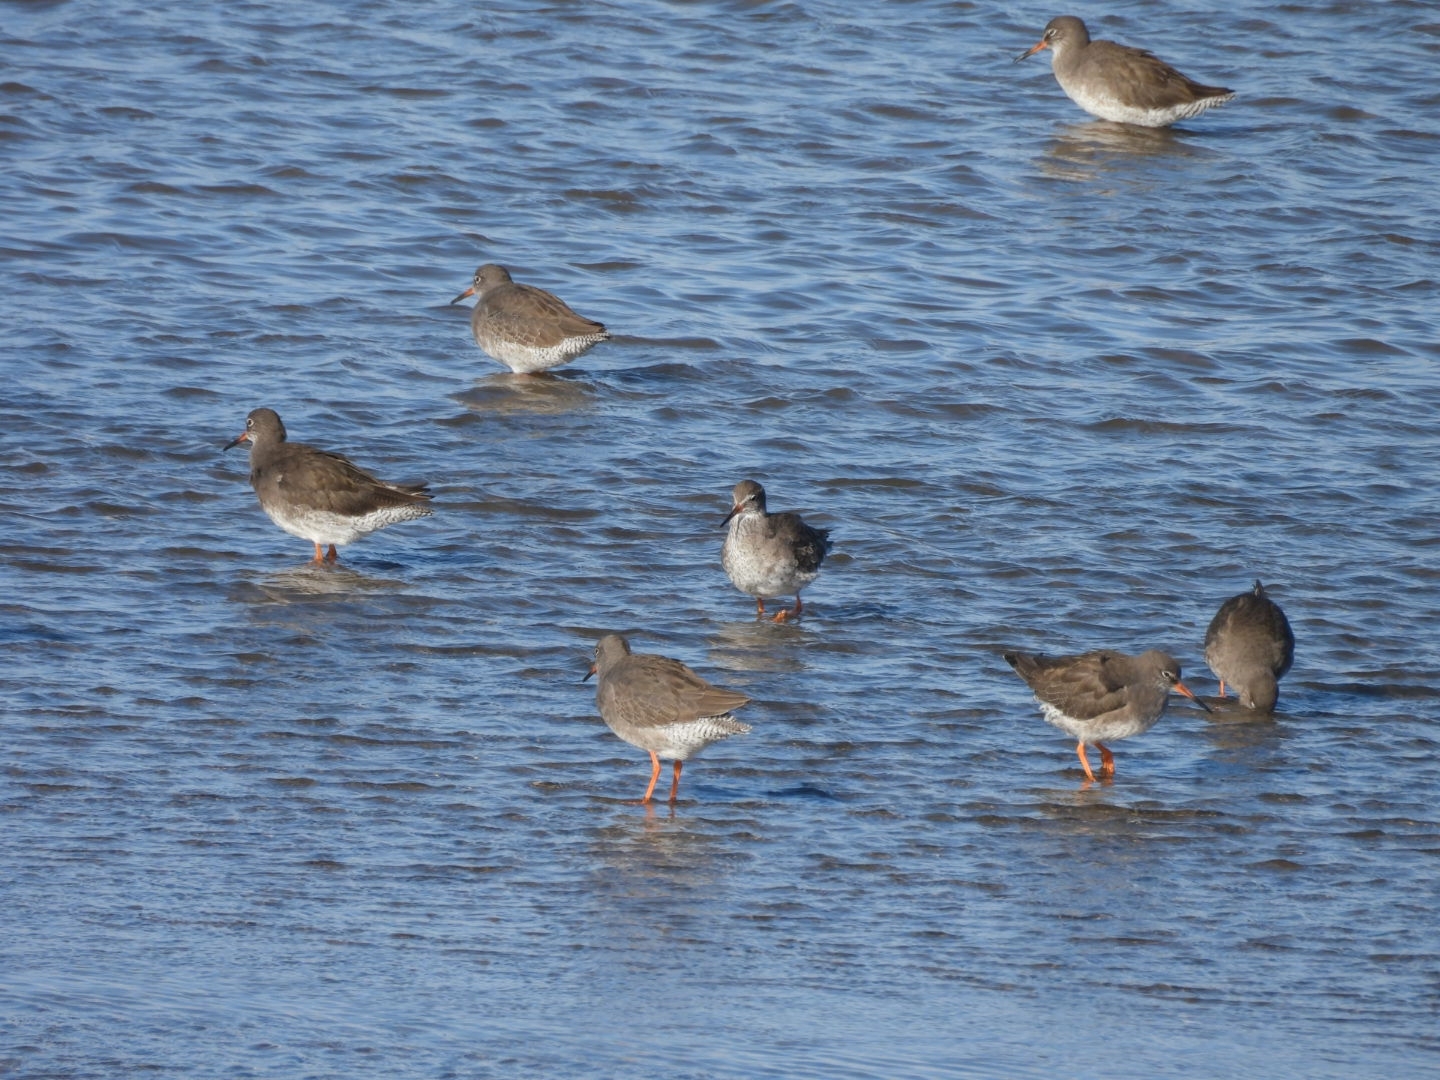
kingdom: Animalia
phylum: Chordata
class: Aves
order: Charadriiformes
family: Scolopacidae
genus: Tringa
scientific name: Tringa totanus
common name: Common redshank
